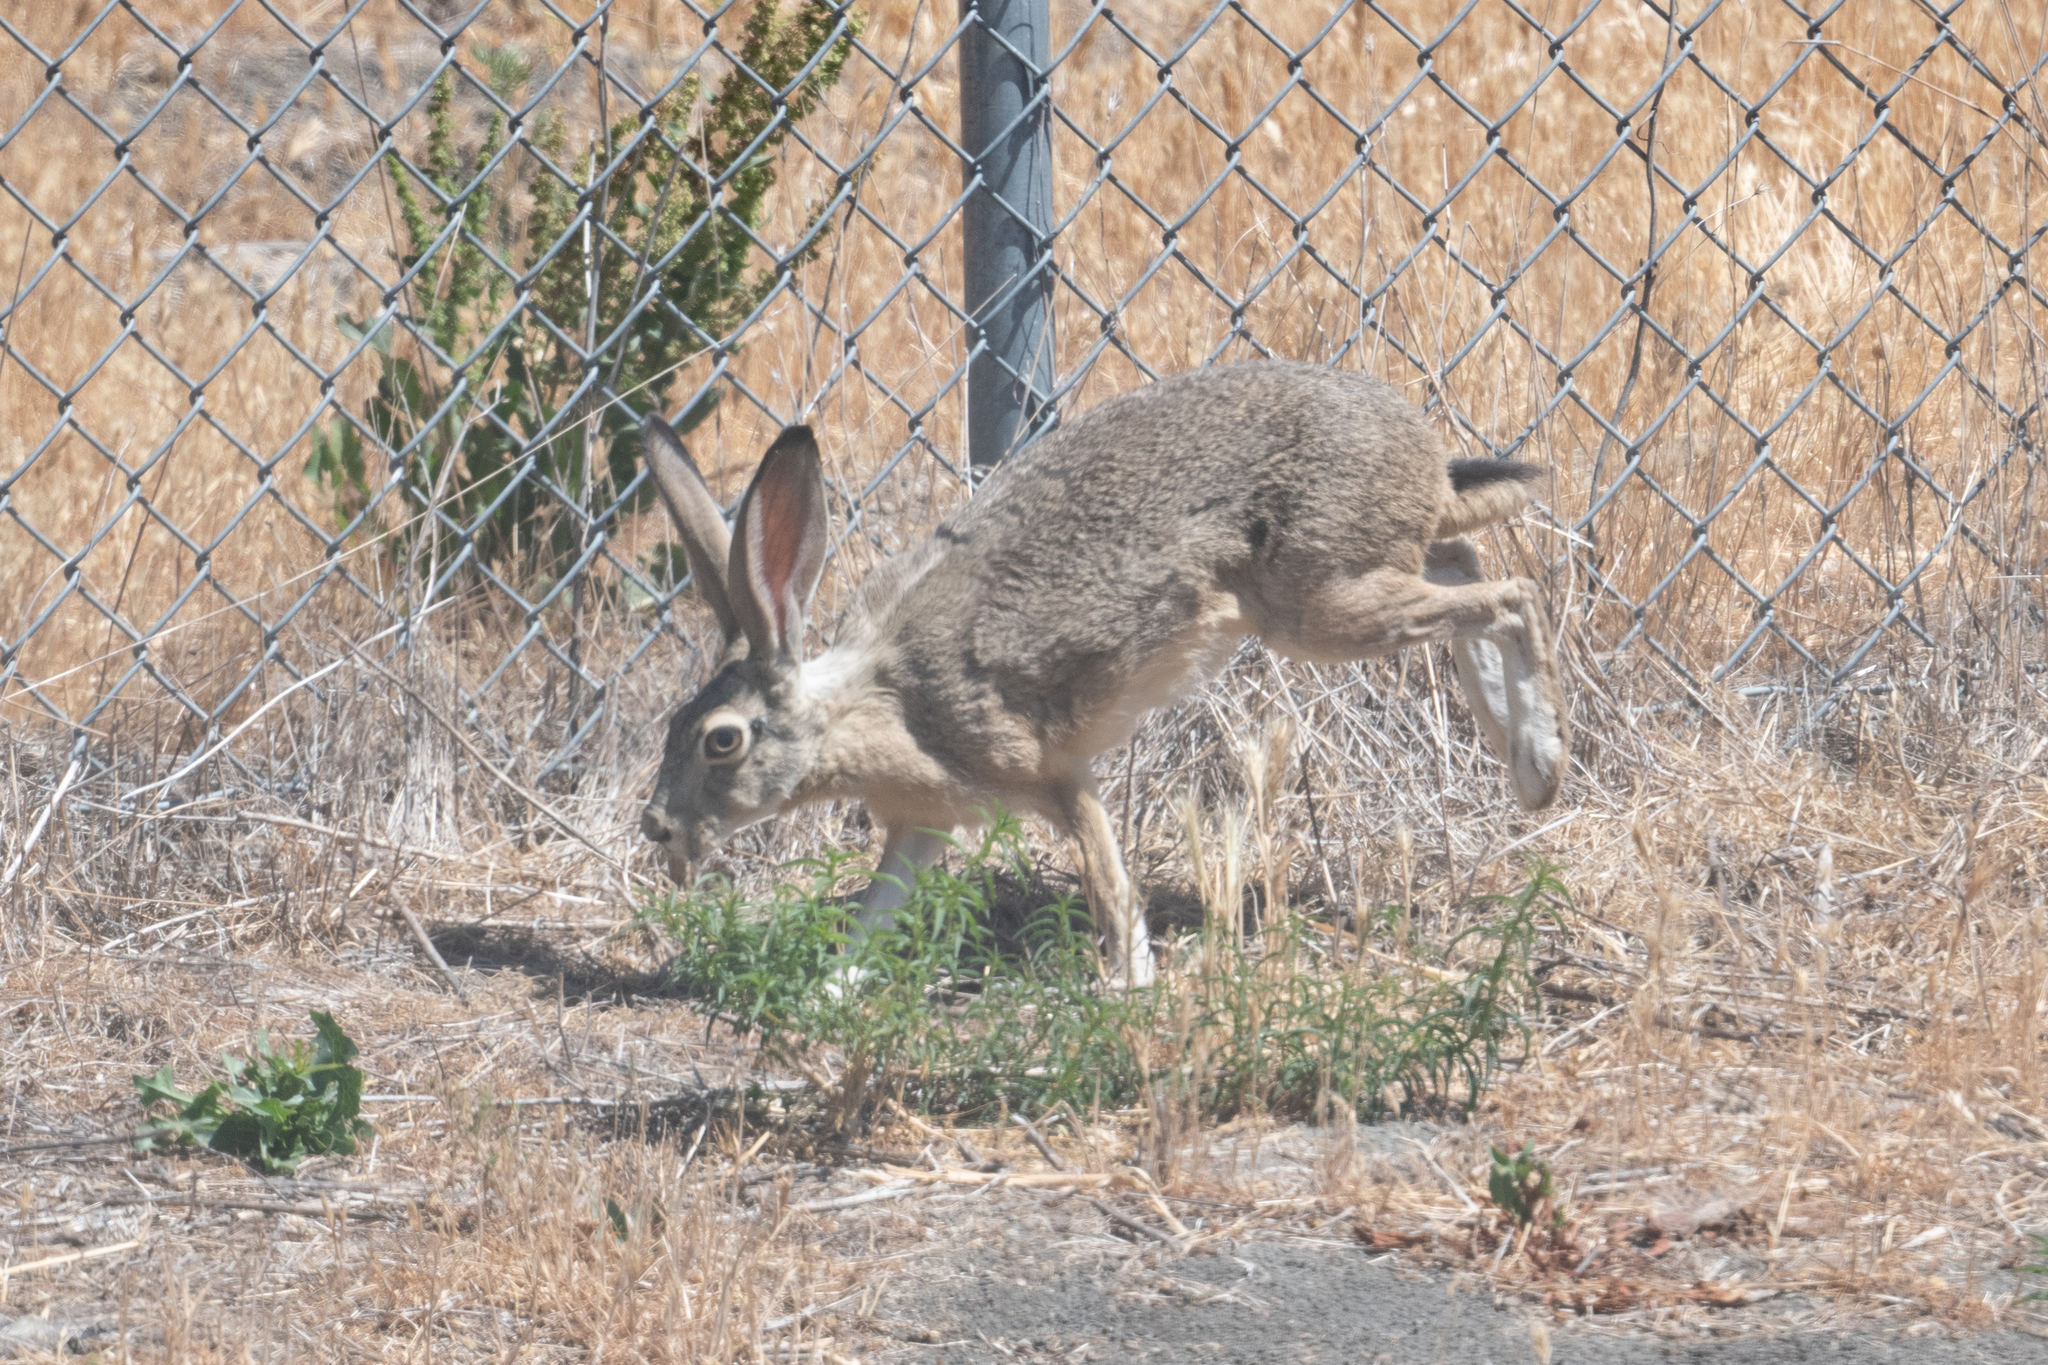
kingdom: Animalia
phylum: Chordata
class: Mammalia
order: Lagomorpha
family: Leporidae
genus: Lepus
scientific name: Lepus californicus
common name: Black-tailed jackrabbit
